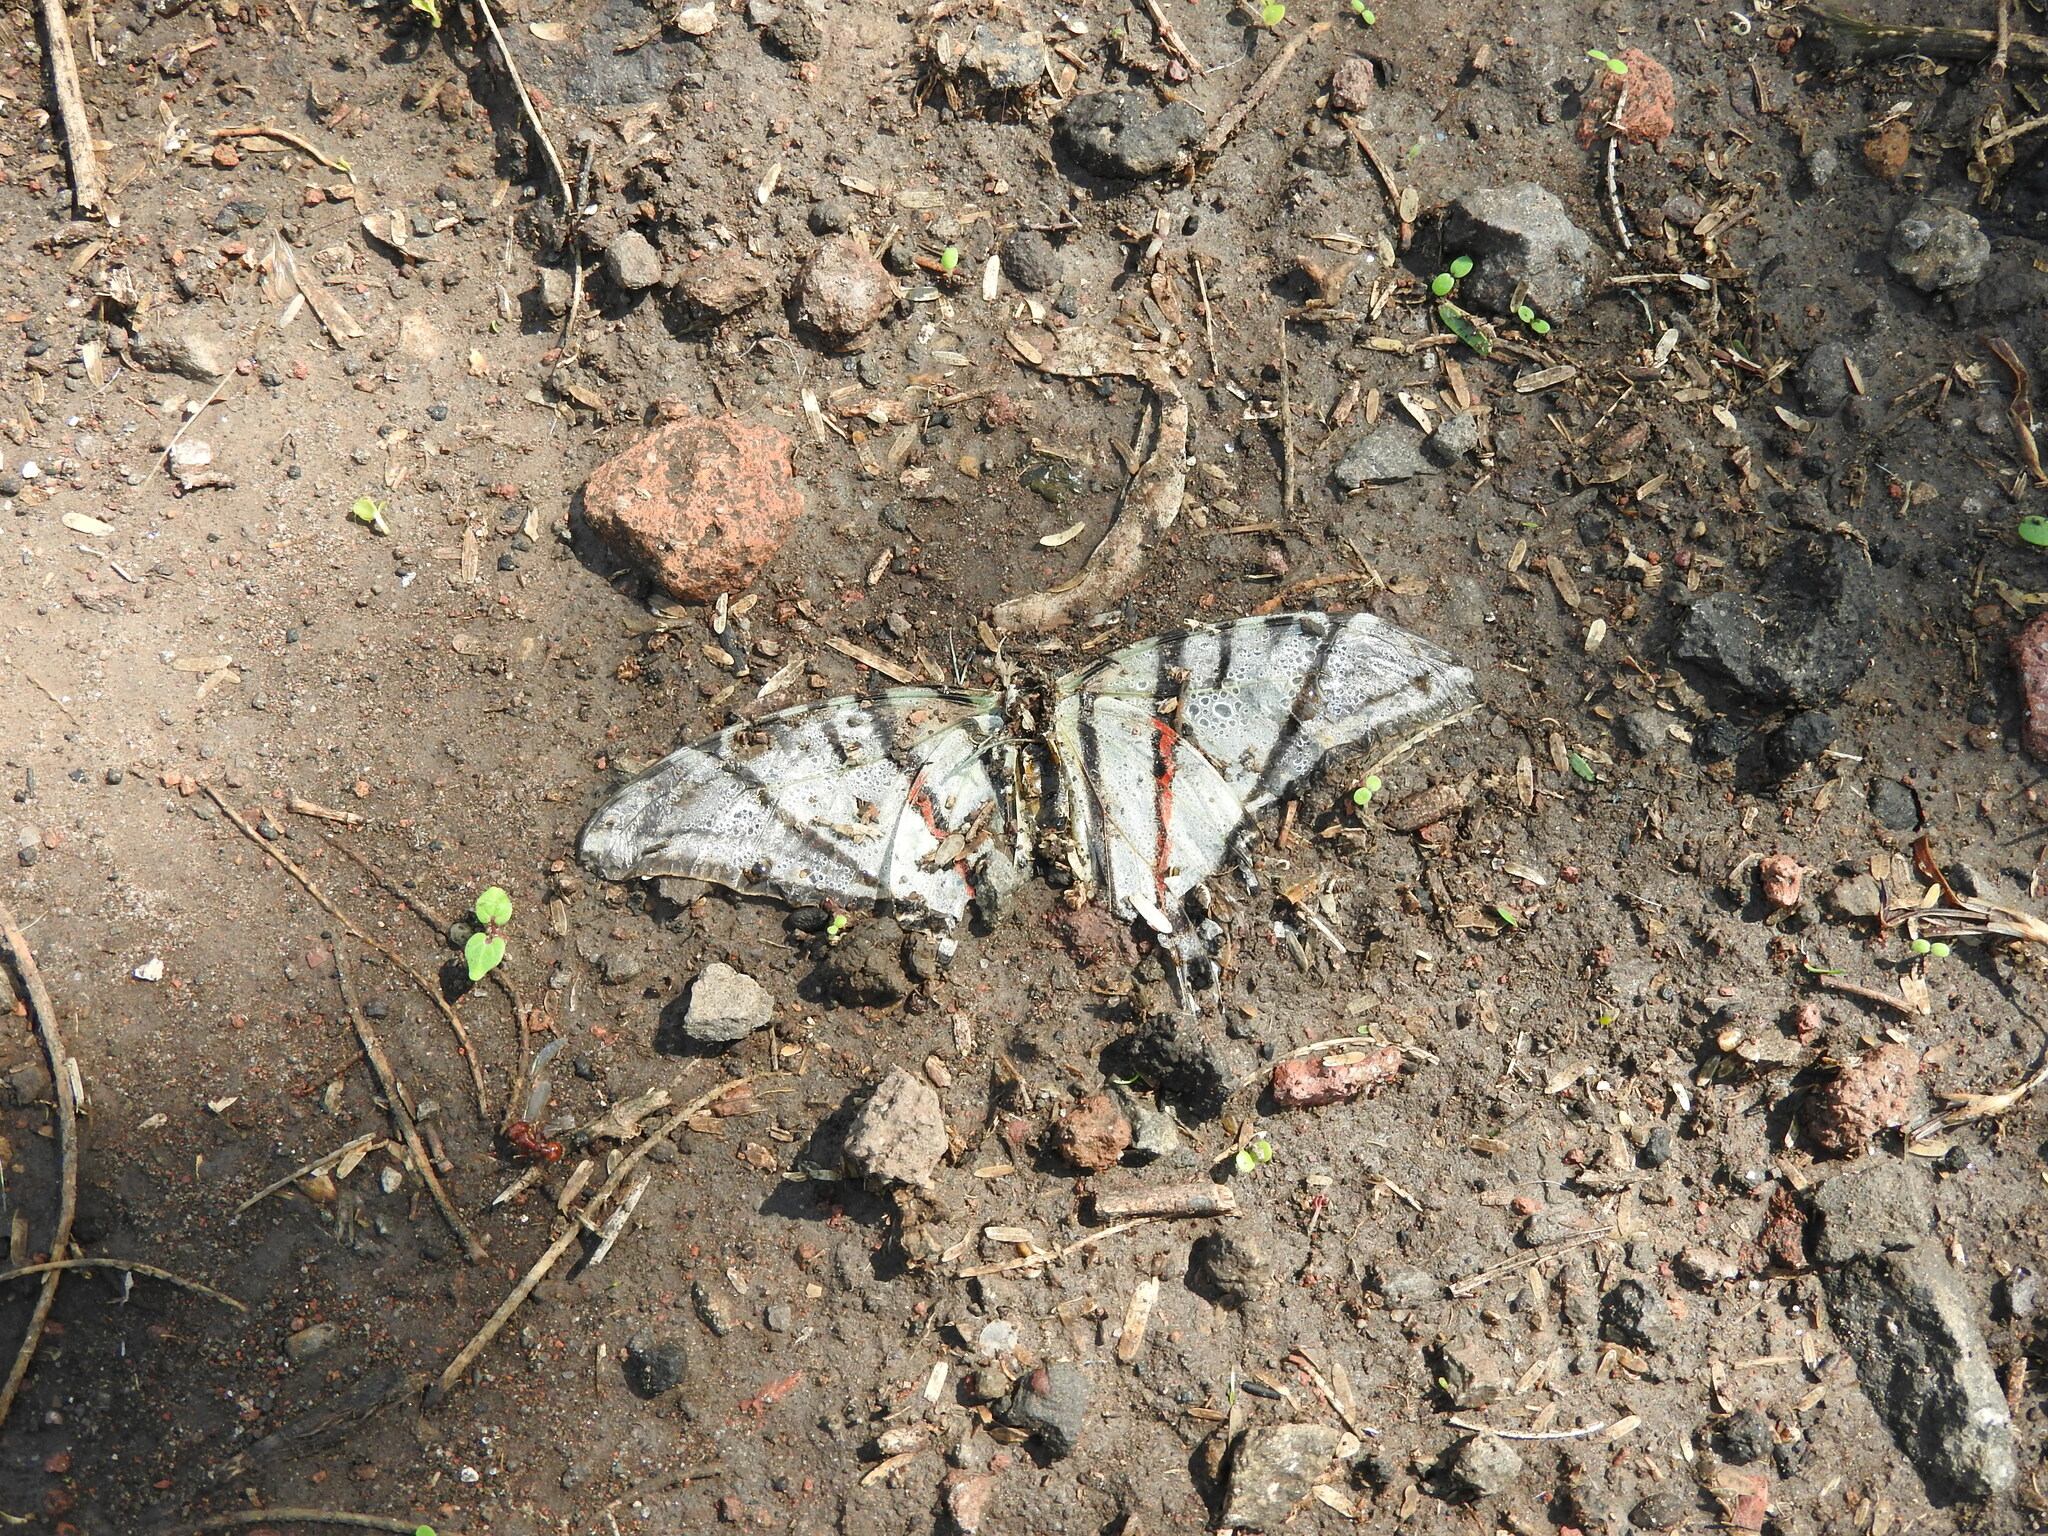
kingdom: Animalia
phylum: Arthropoda
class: Insecta
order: Lepidoptera
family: Papilionidae
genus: Protographium
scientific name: Protographium epidaus
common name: Mexican kite swallowtail
